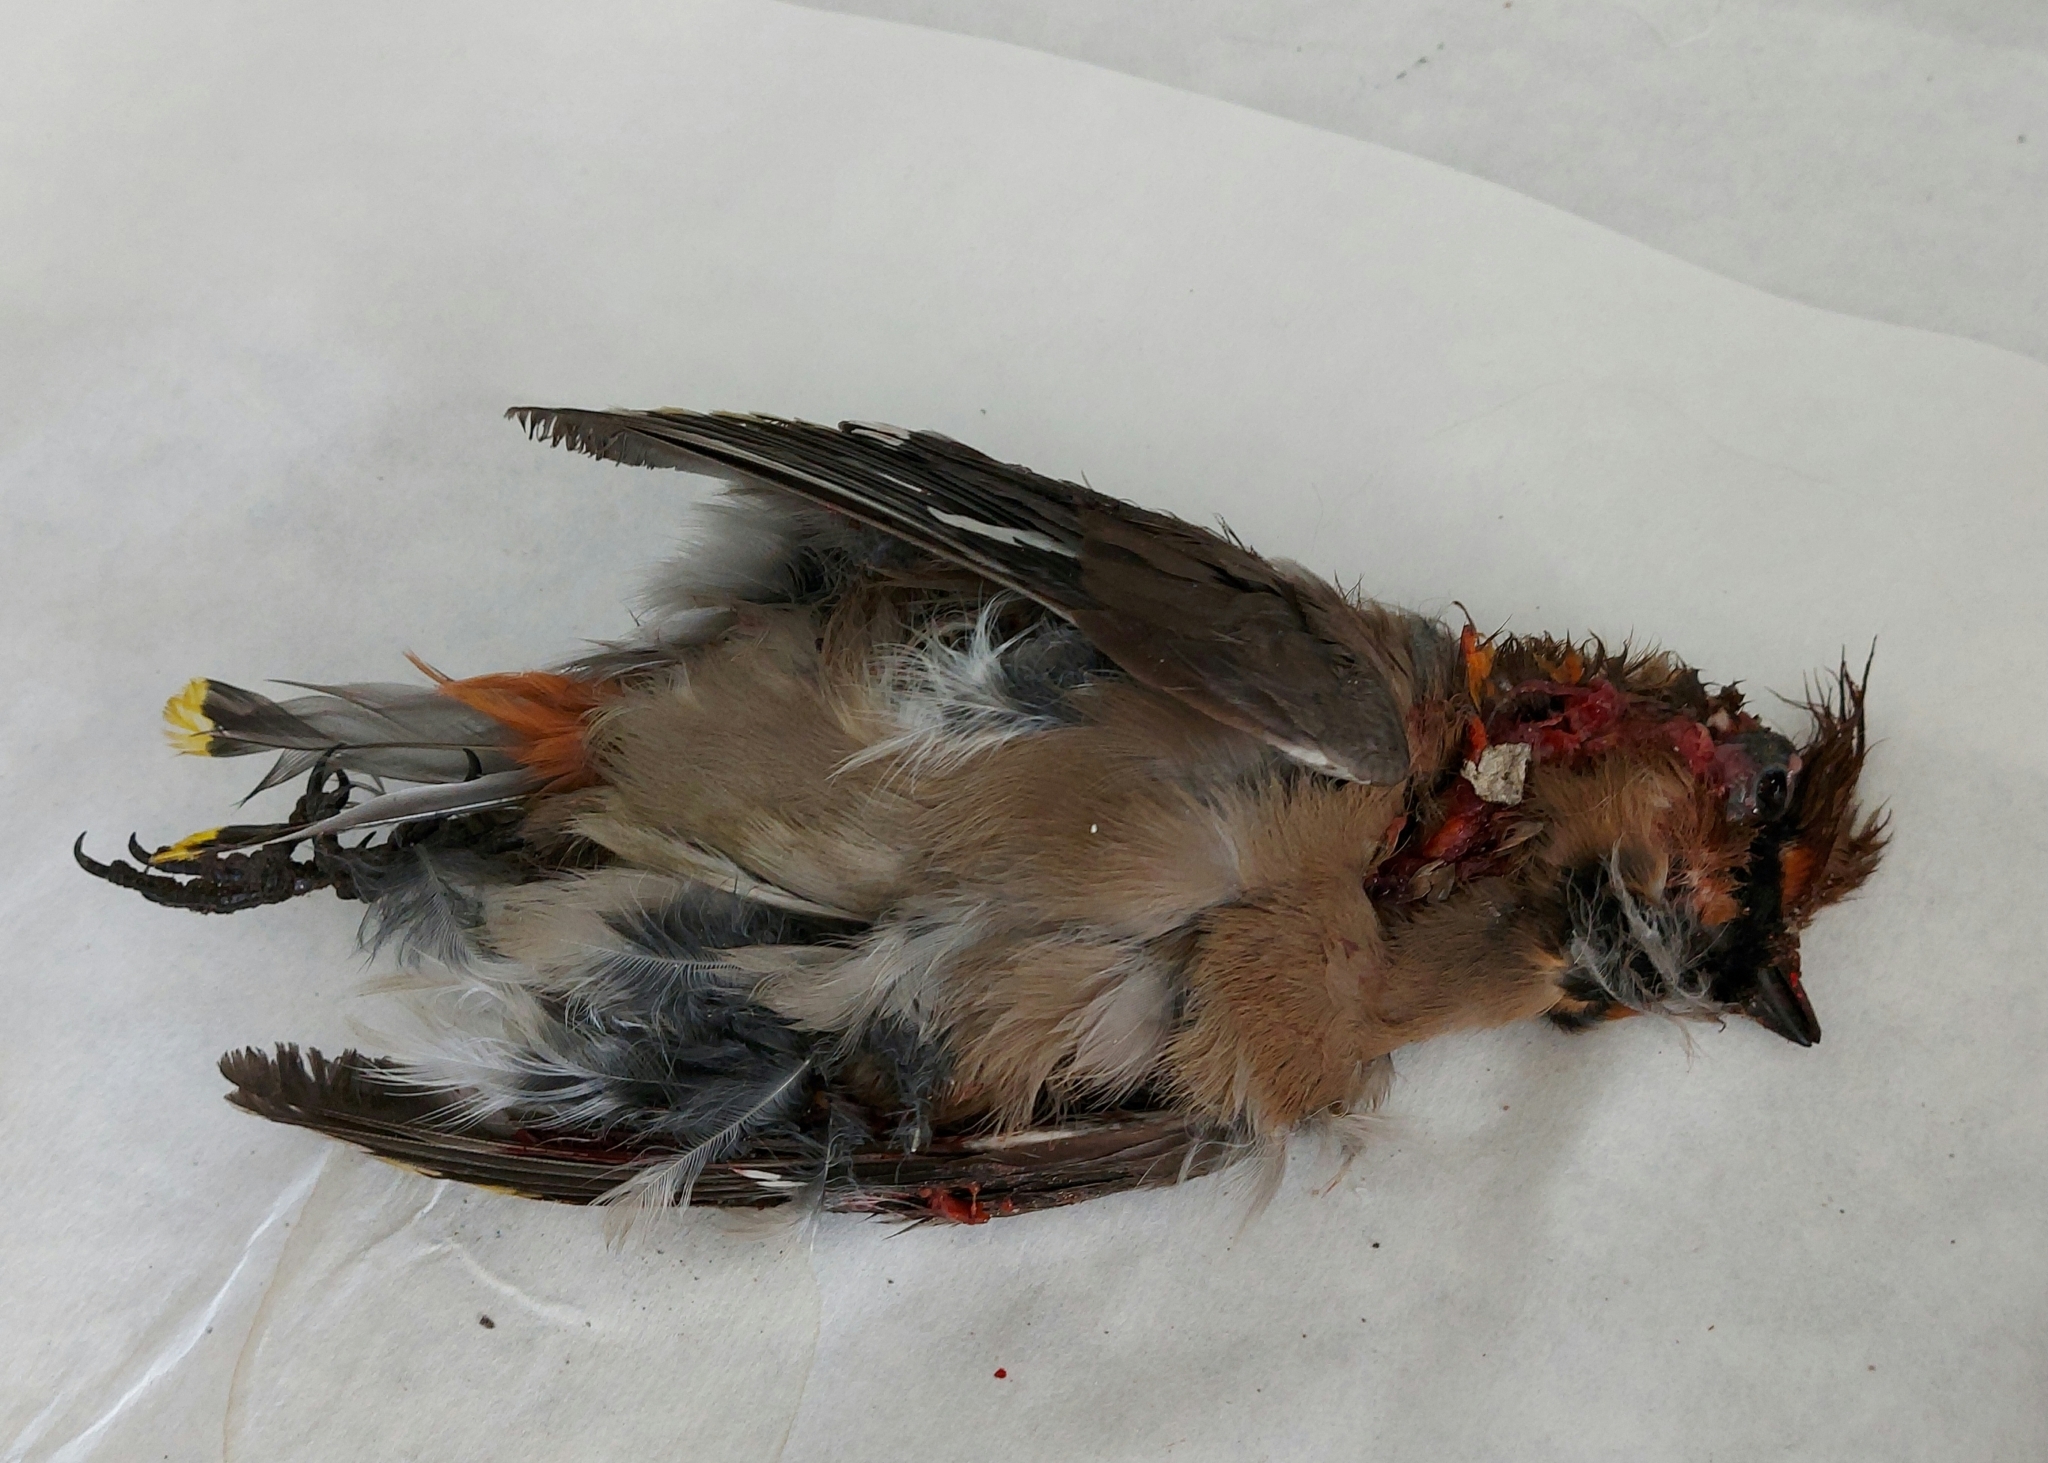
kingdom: Animalia
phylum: Chordata
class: Aves
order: Passeriformes
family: Bombycillidae
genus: Bombycilla
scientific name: Bombycilla garrulus
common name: Bohemian waxwing
